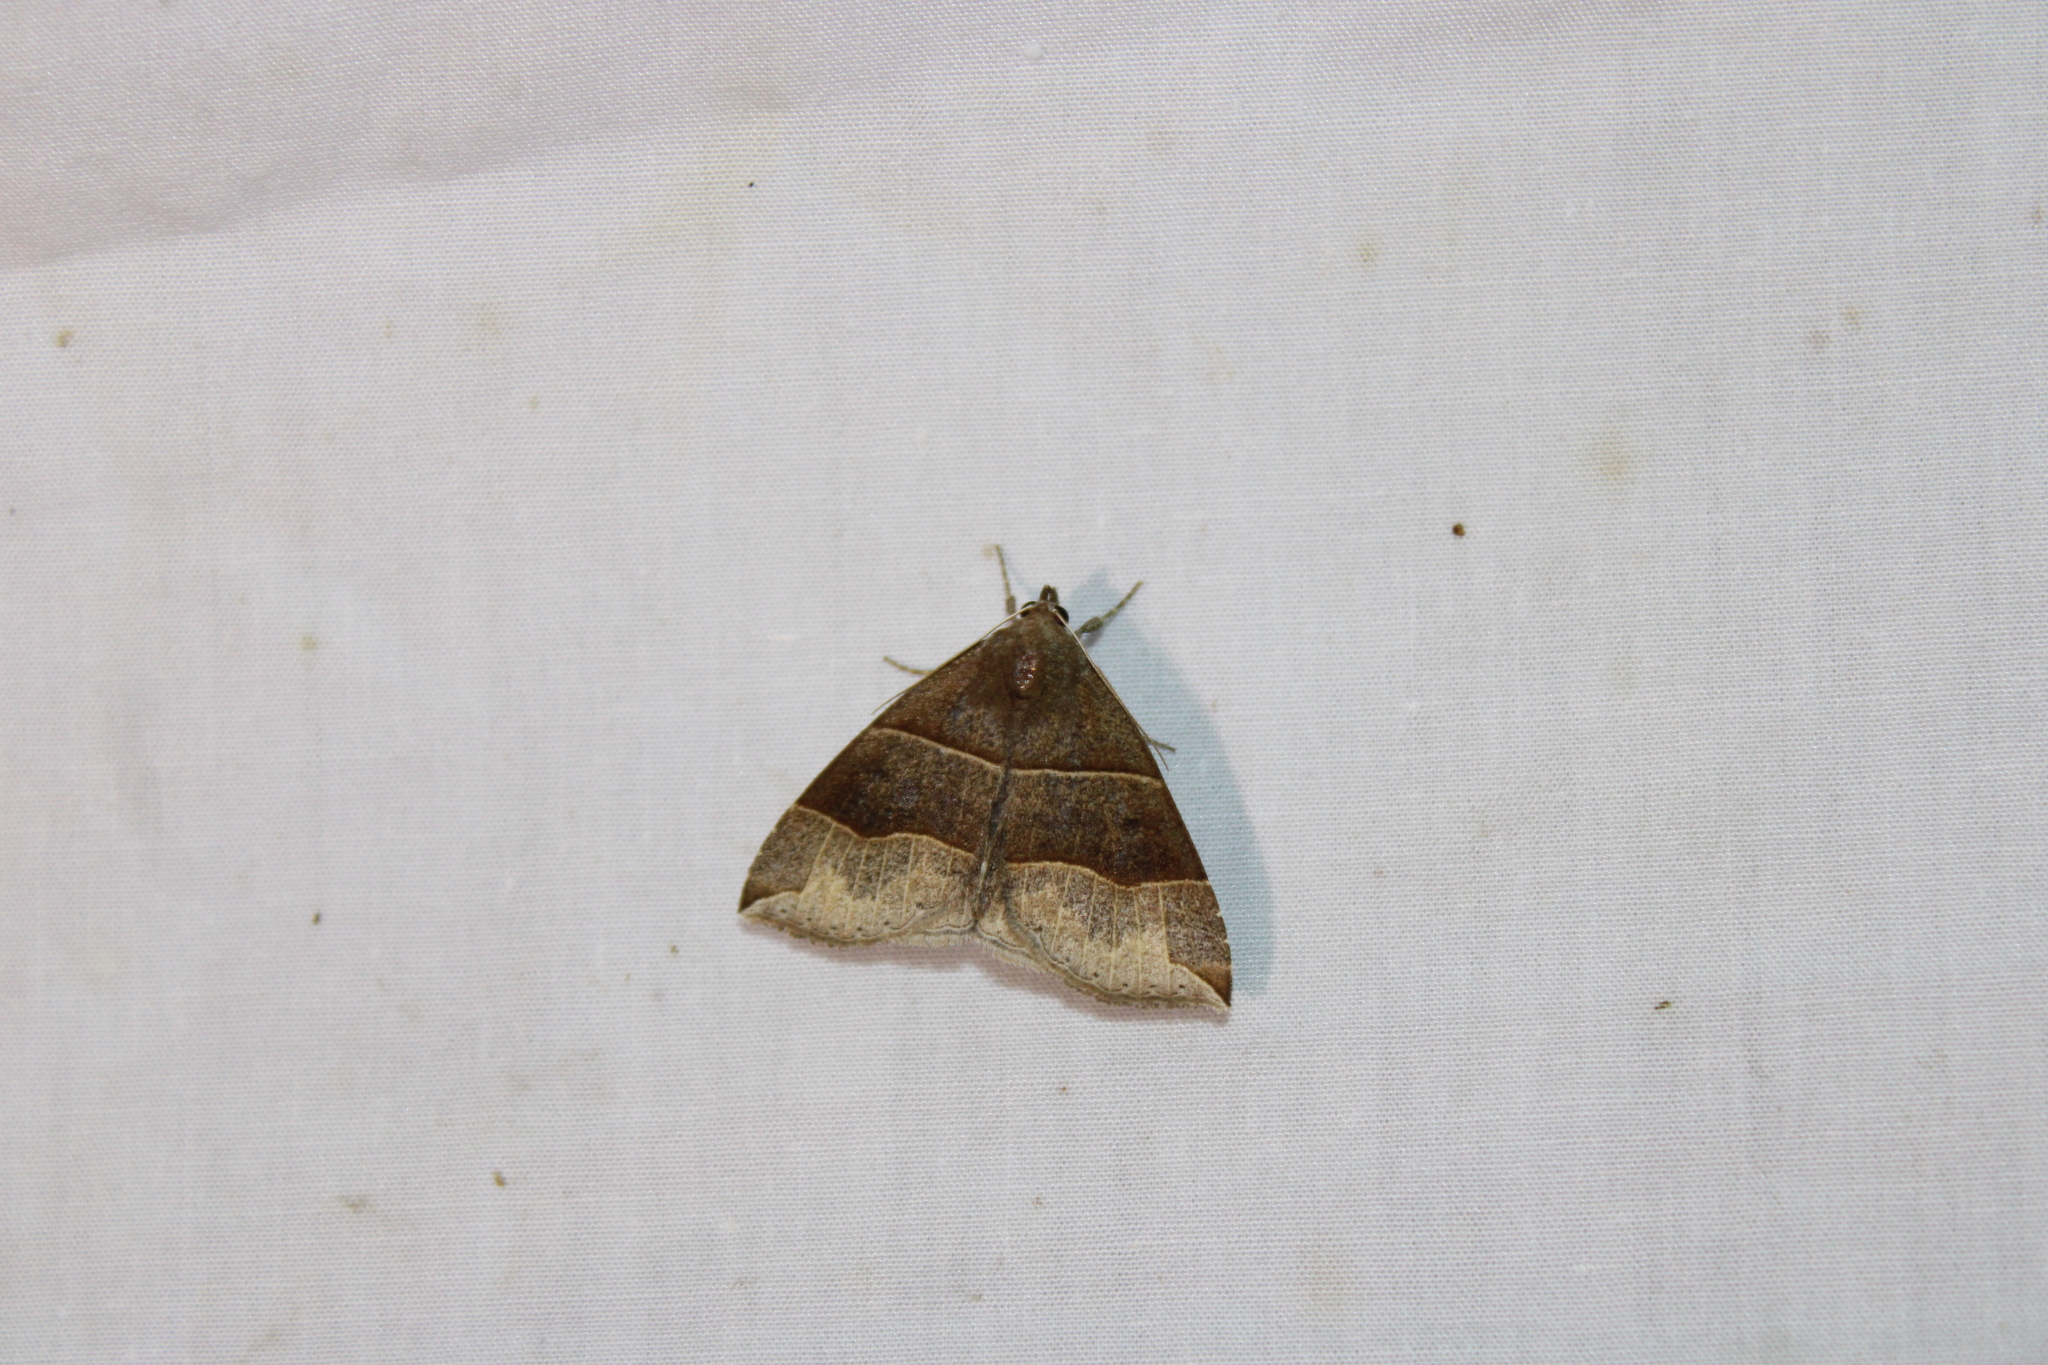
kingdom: Animalia
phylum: Arthropoda
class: Insecta
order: Lepidoptera
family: Erebidae
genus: Parallelia
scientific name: Parallelia bistriaris
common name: Maple looper moth
